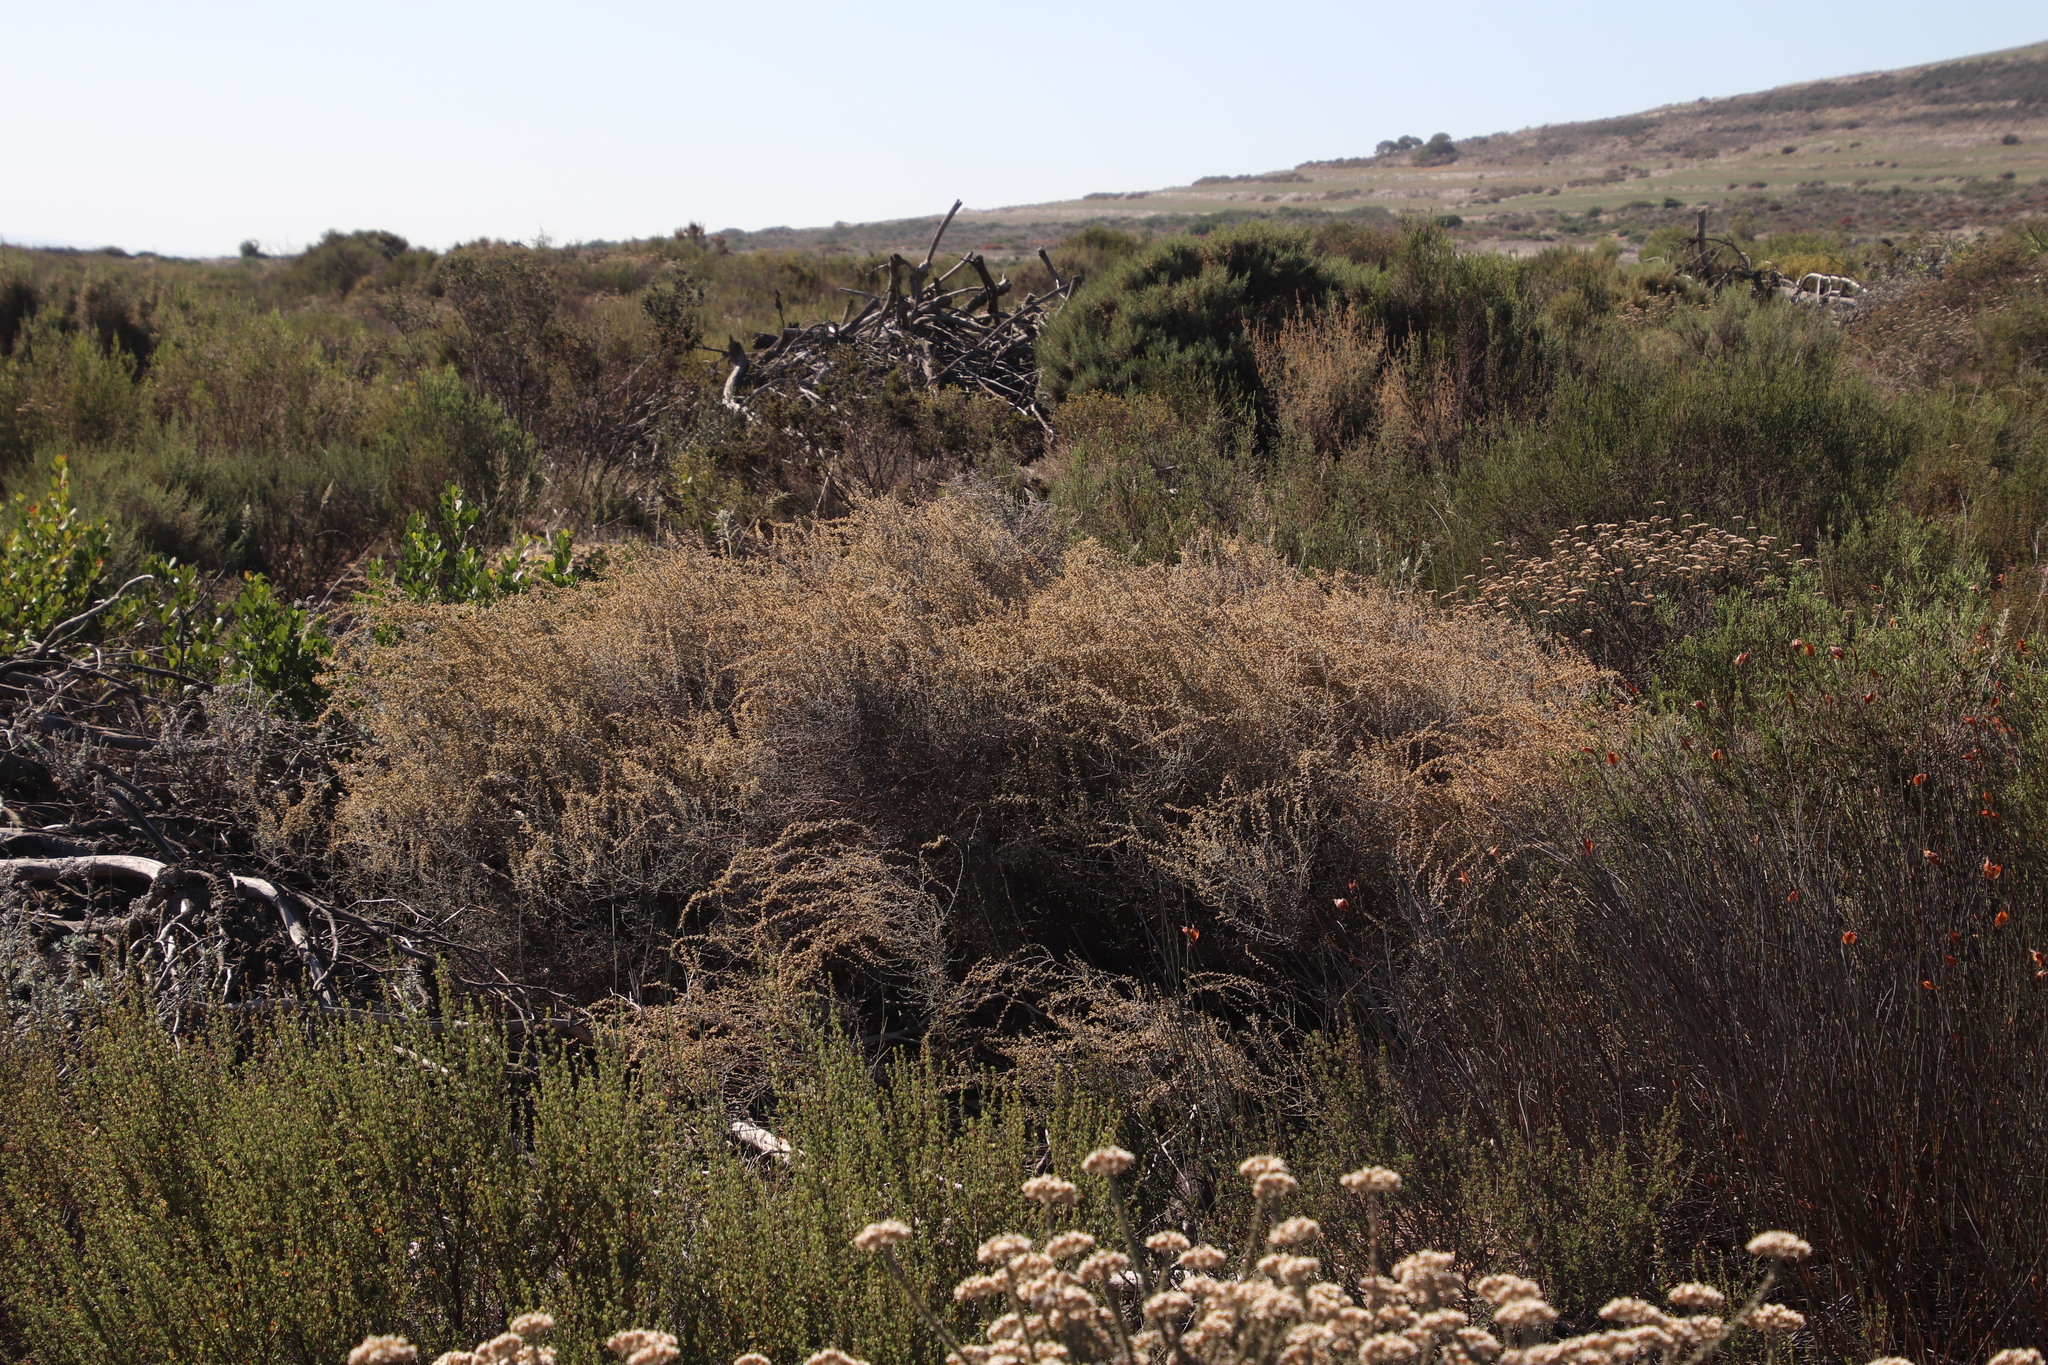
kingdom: Plantae
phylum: Tracheophyta
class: Magnoliopsida
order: Asterales
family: Asteraceae
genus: Seriphium
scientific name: Seriphium plumosum
